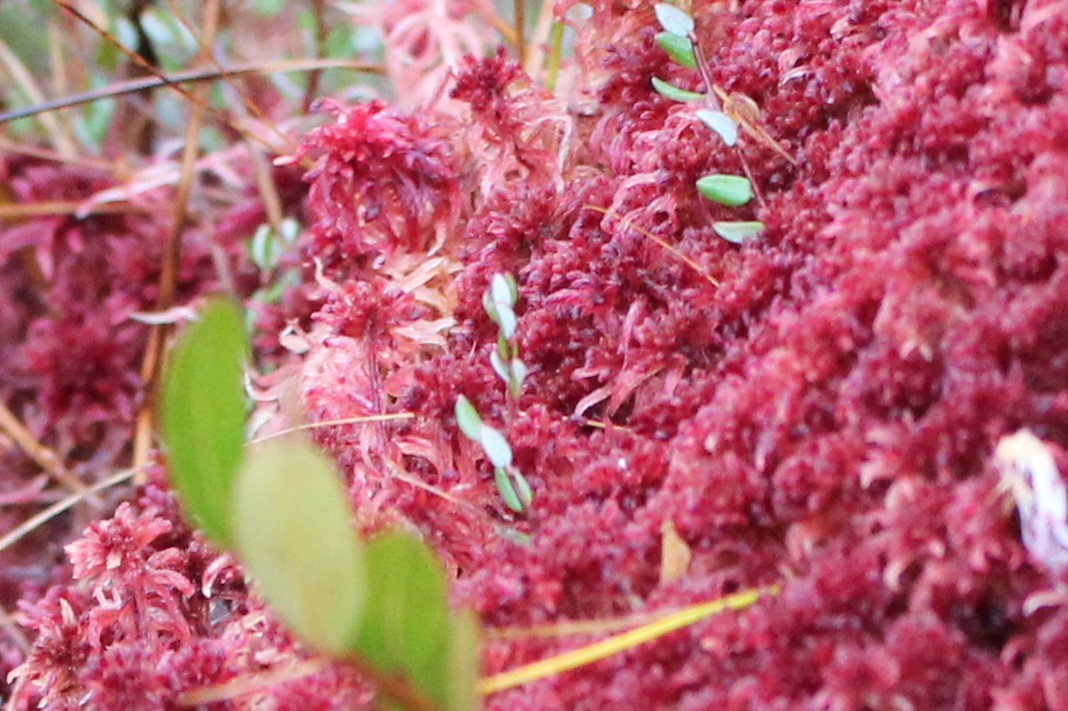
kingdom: Plantae
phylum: Tracheophyta
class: Magnoliopsida
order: Ericales
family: Ericaceae
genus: Vaccinium
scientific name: Vaccinium oxycoccos
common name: Cranberry
